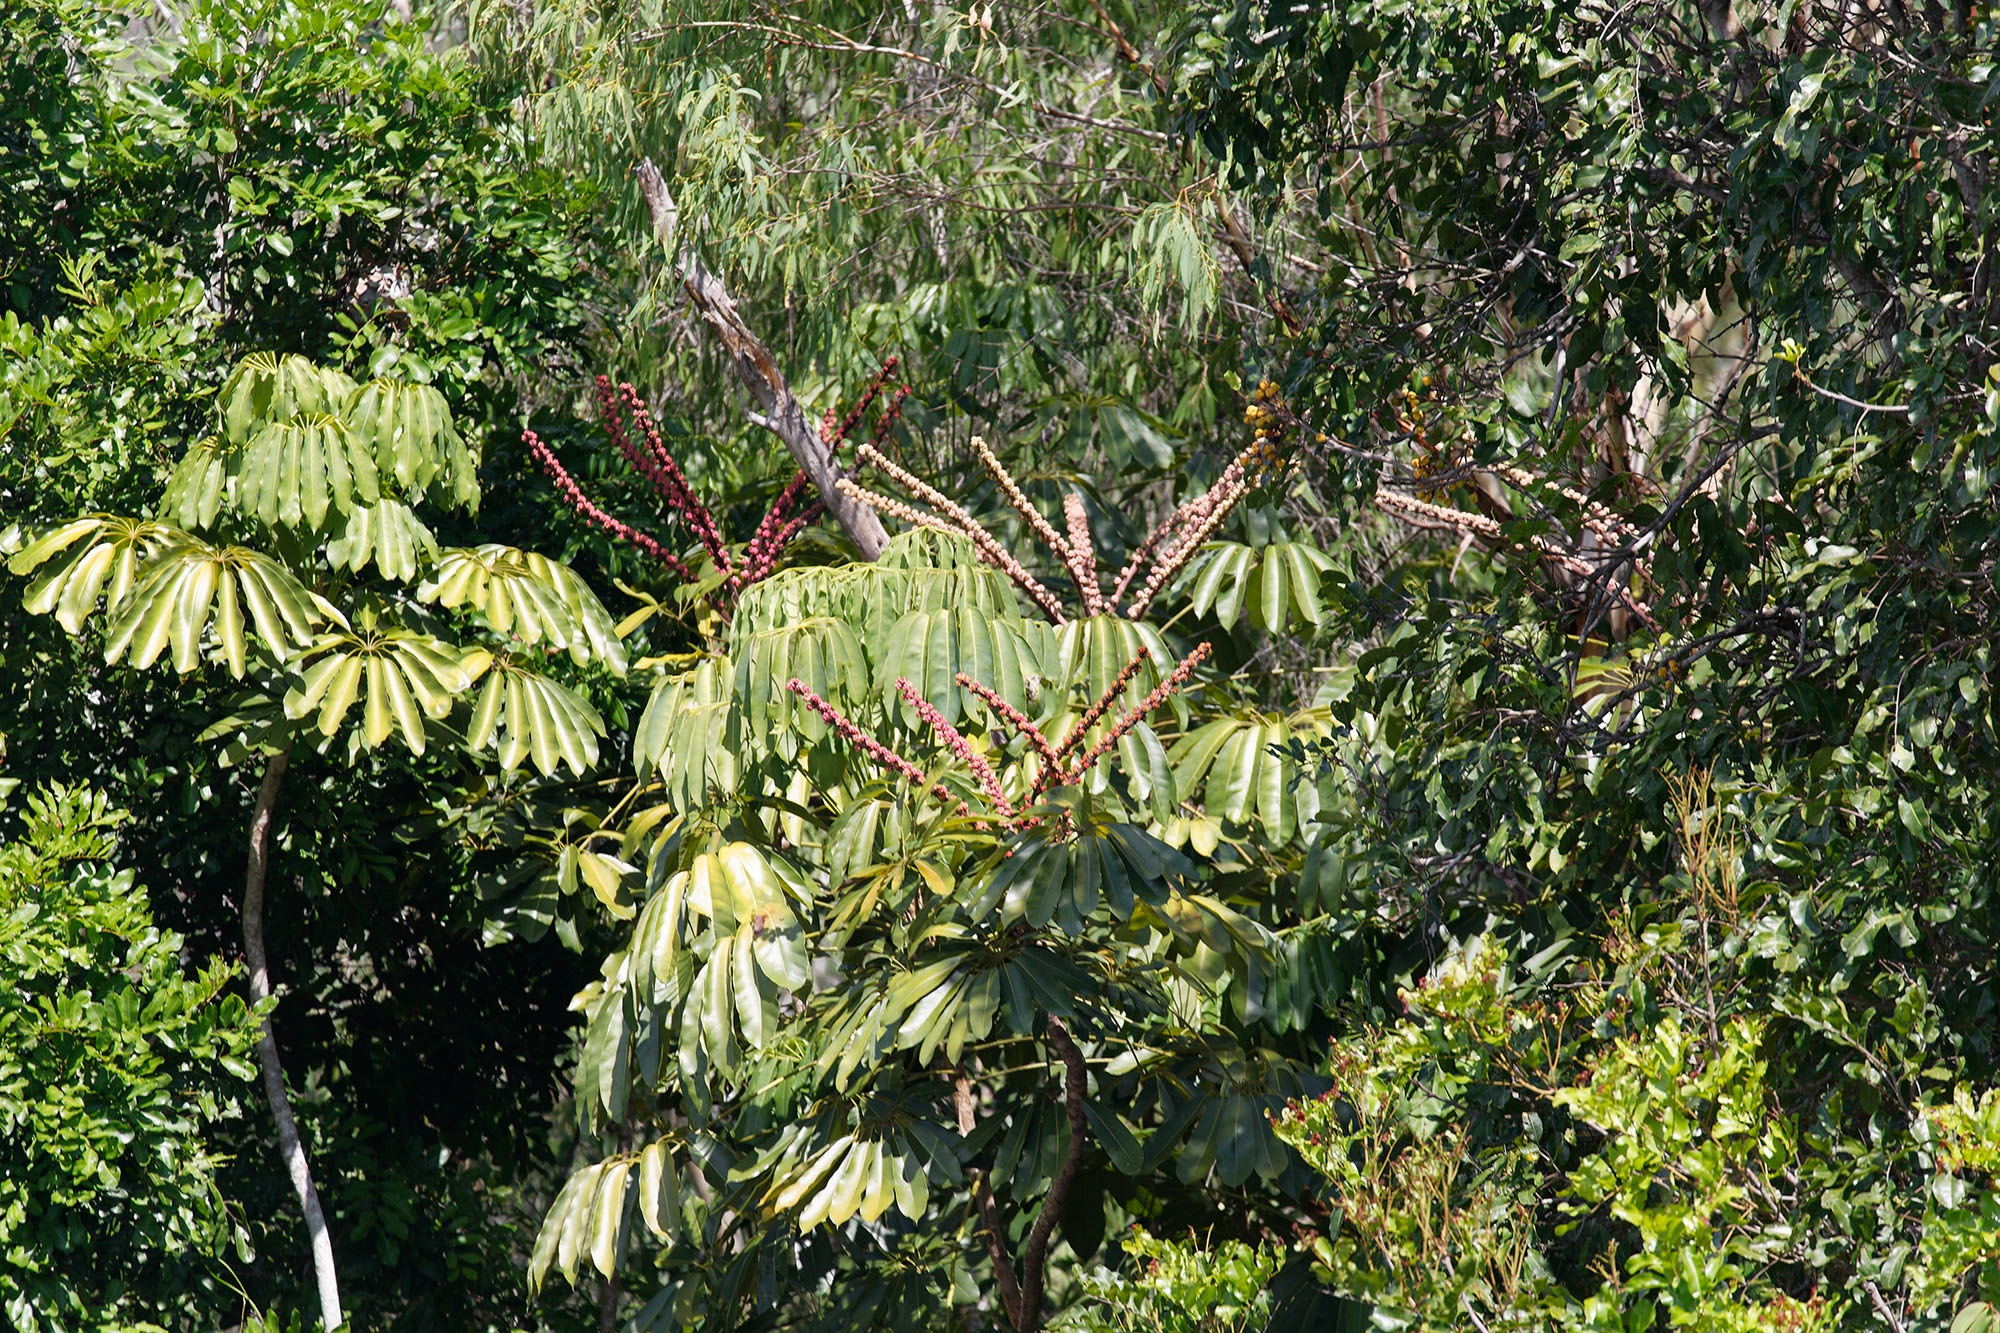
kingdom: Plantae
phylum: Tracheophyta
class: Magnoliopsida
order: Apiales
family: Araliaceae
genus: Heptapleurum
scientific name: Heptapleurum actinophyllum
